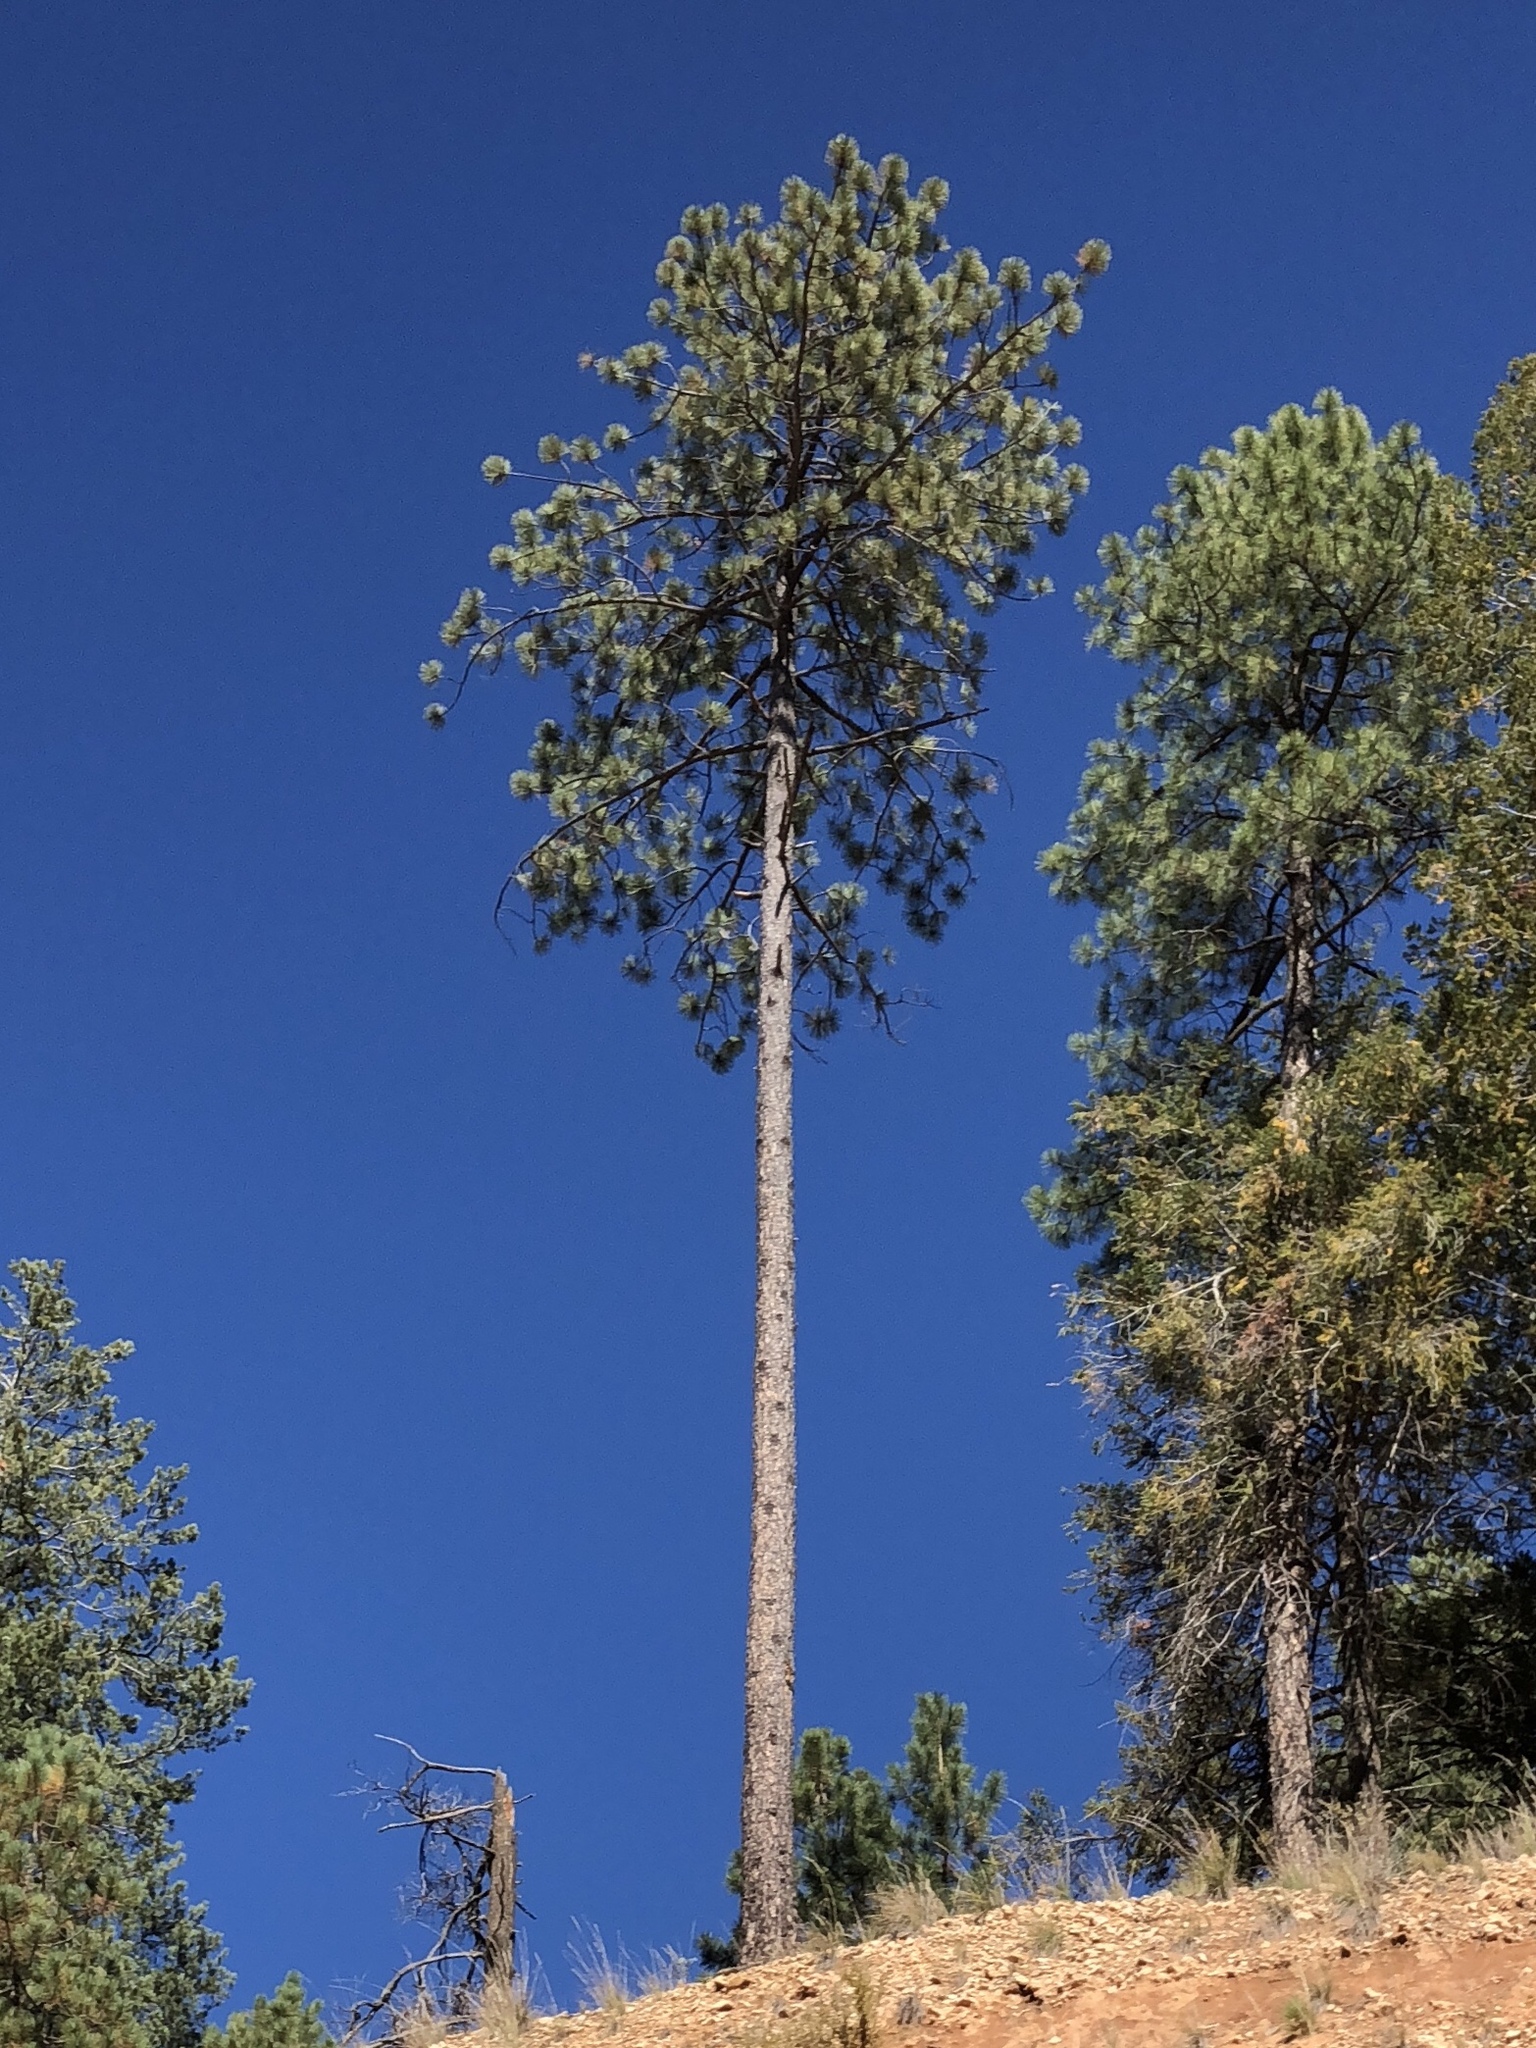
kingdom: Plantae
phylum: Tracheophyta
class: Pinopsida
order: Pinales
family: Pinaceae
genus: Pinus
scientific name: Pinus ponderosa
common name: Western yellow-pine
